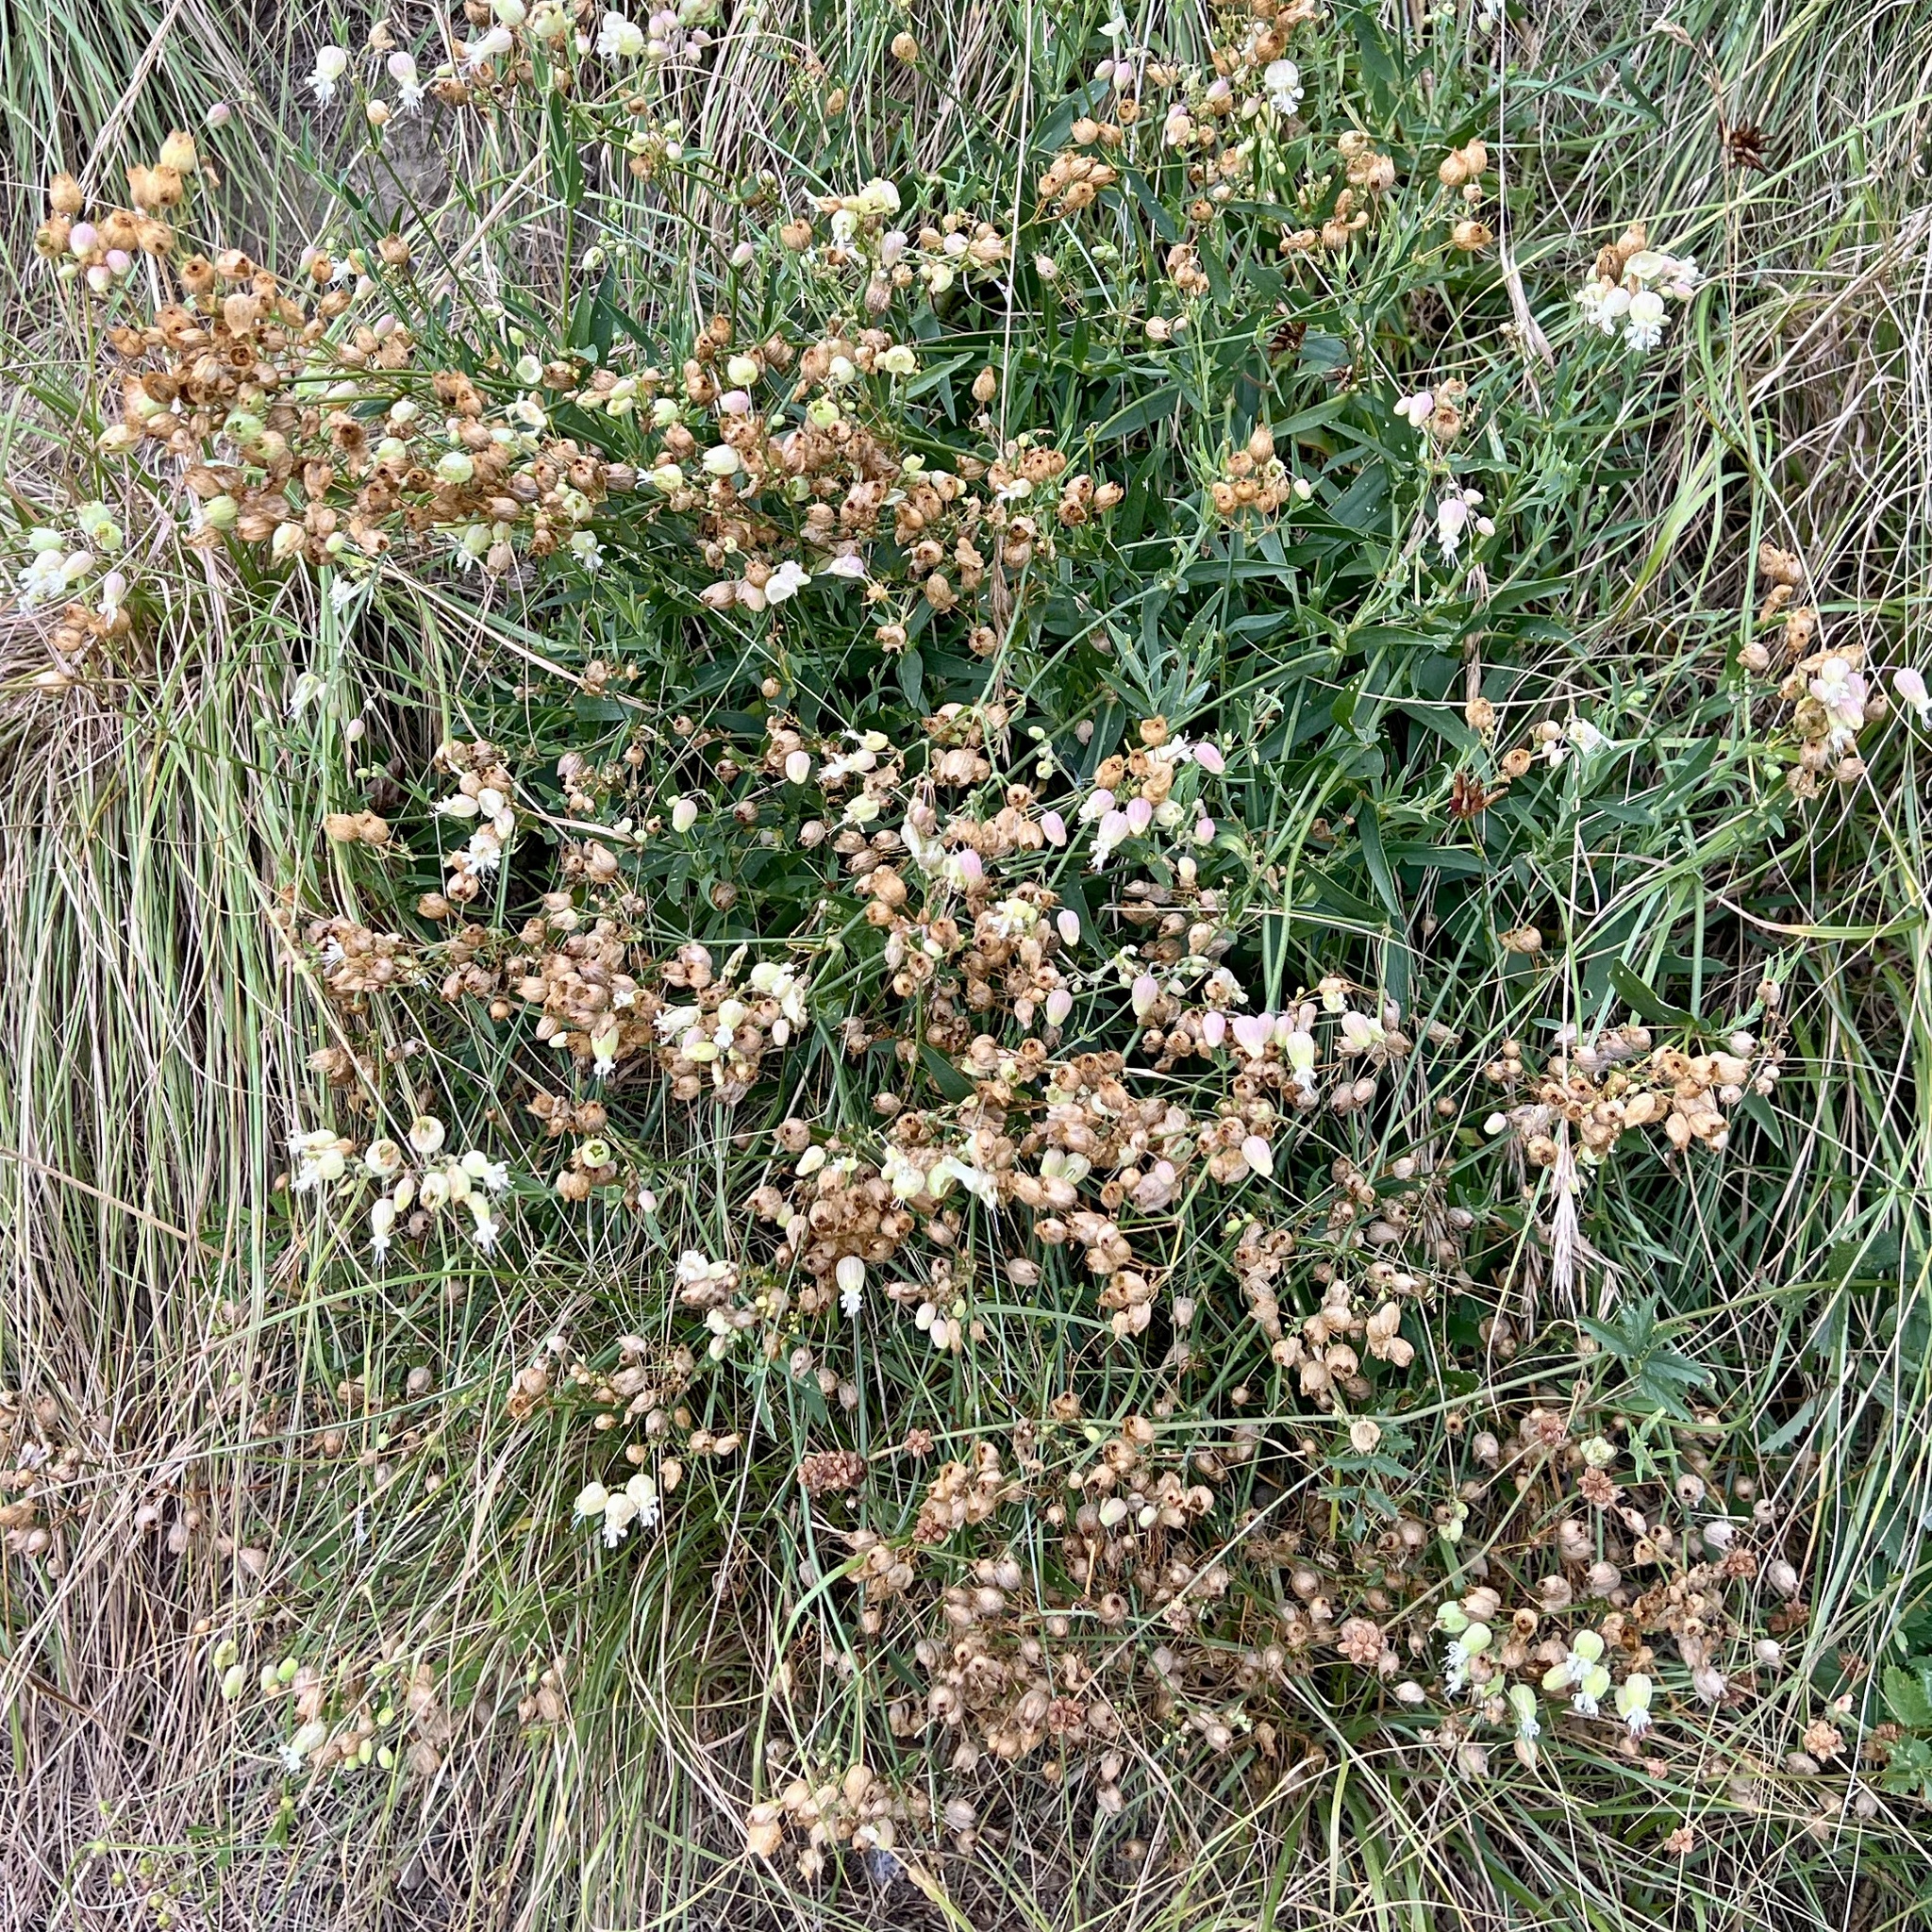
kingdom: Plantae
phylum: Tracheophyta
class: Magnoliopsida
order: Caryophyllales
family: Caryophyllaceae
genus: Silene
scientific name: Silene vulgaris
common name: Bladder campion
